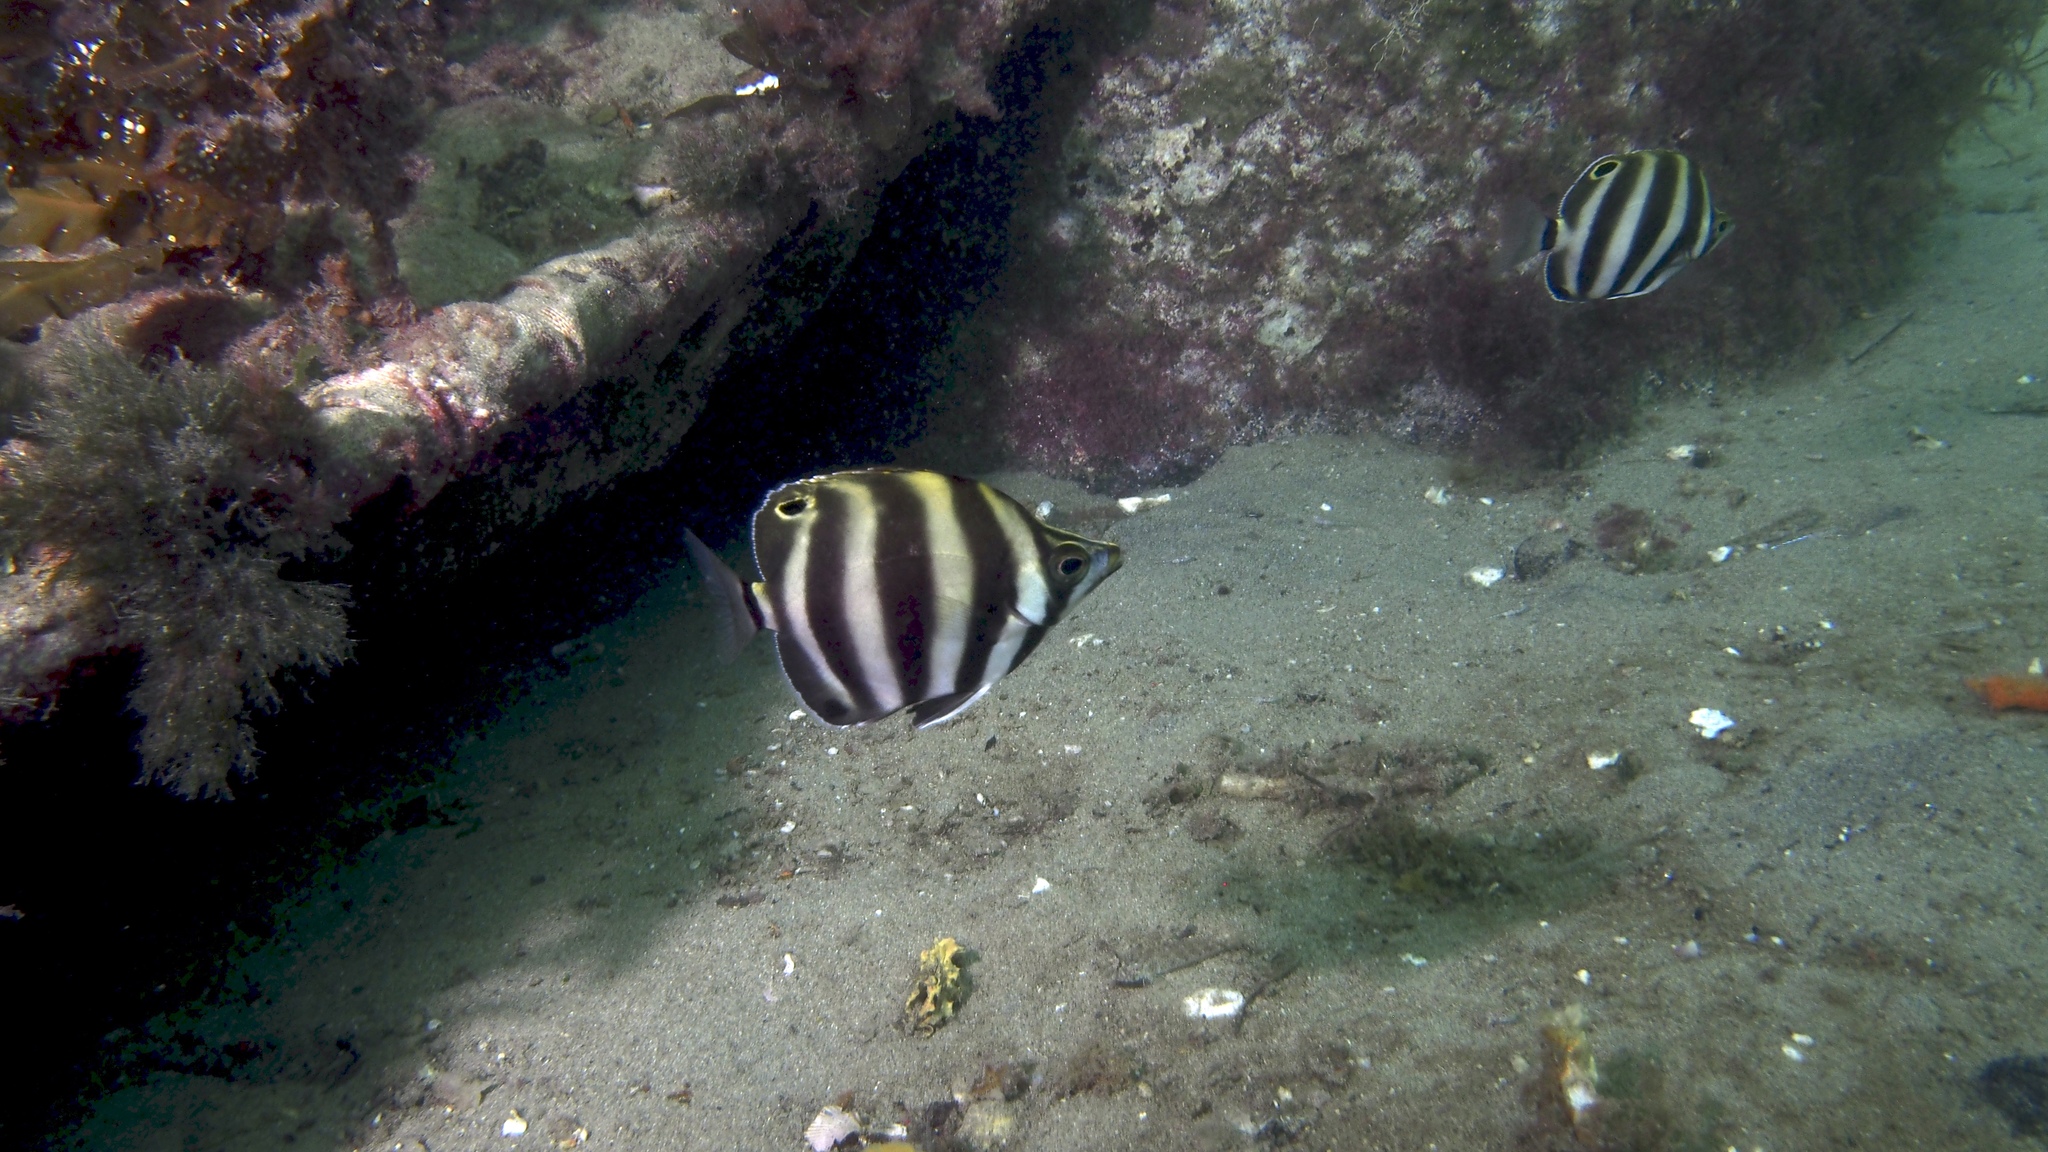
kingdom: Animalia
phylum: Chordata
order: Perciformes
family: Kyphosidae
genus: Tilodon
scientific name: Tilodon sexfasciatus
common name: Moonlighter
